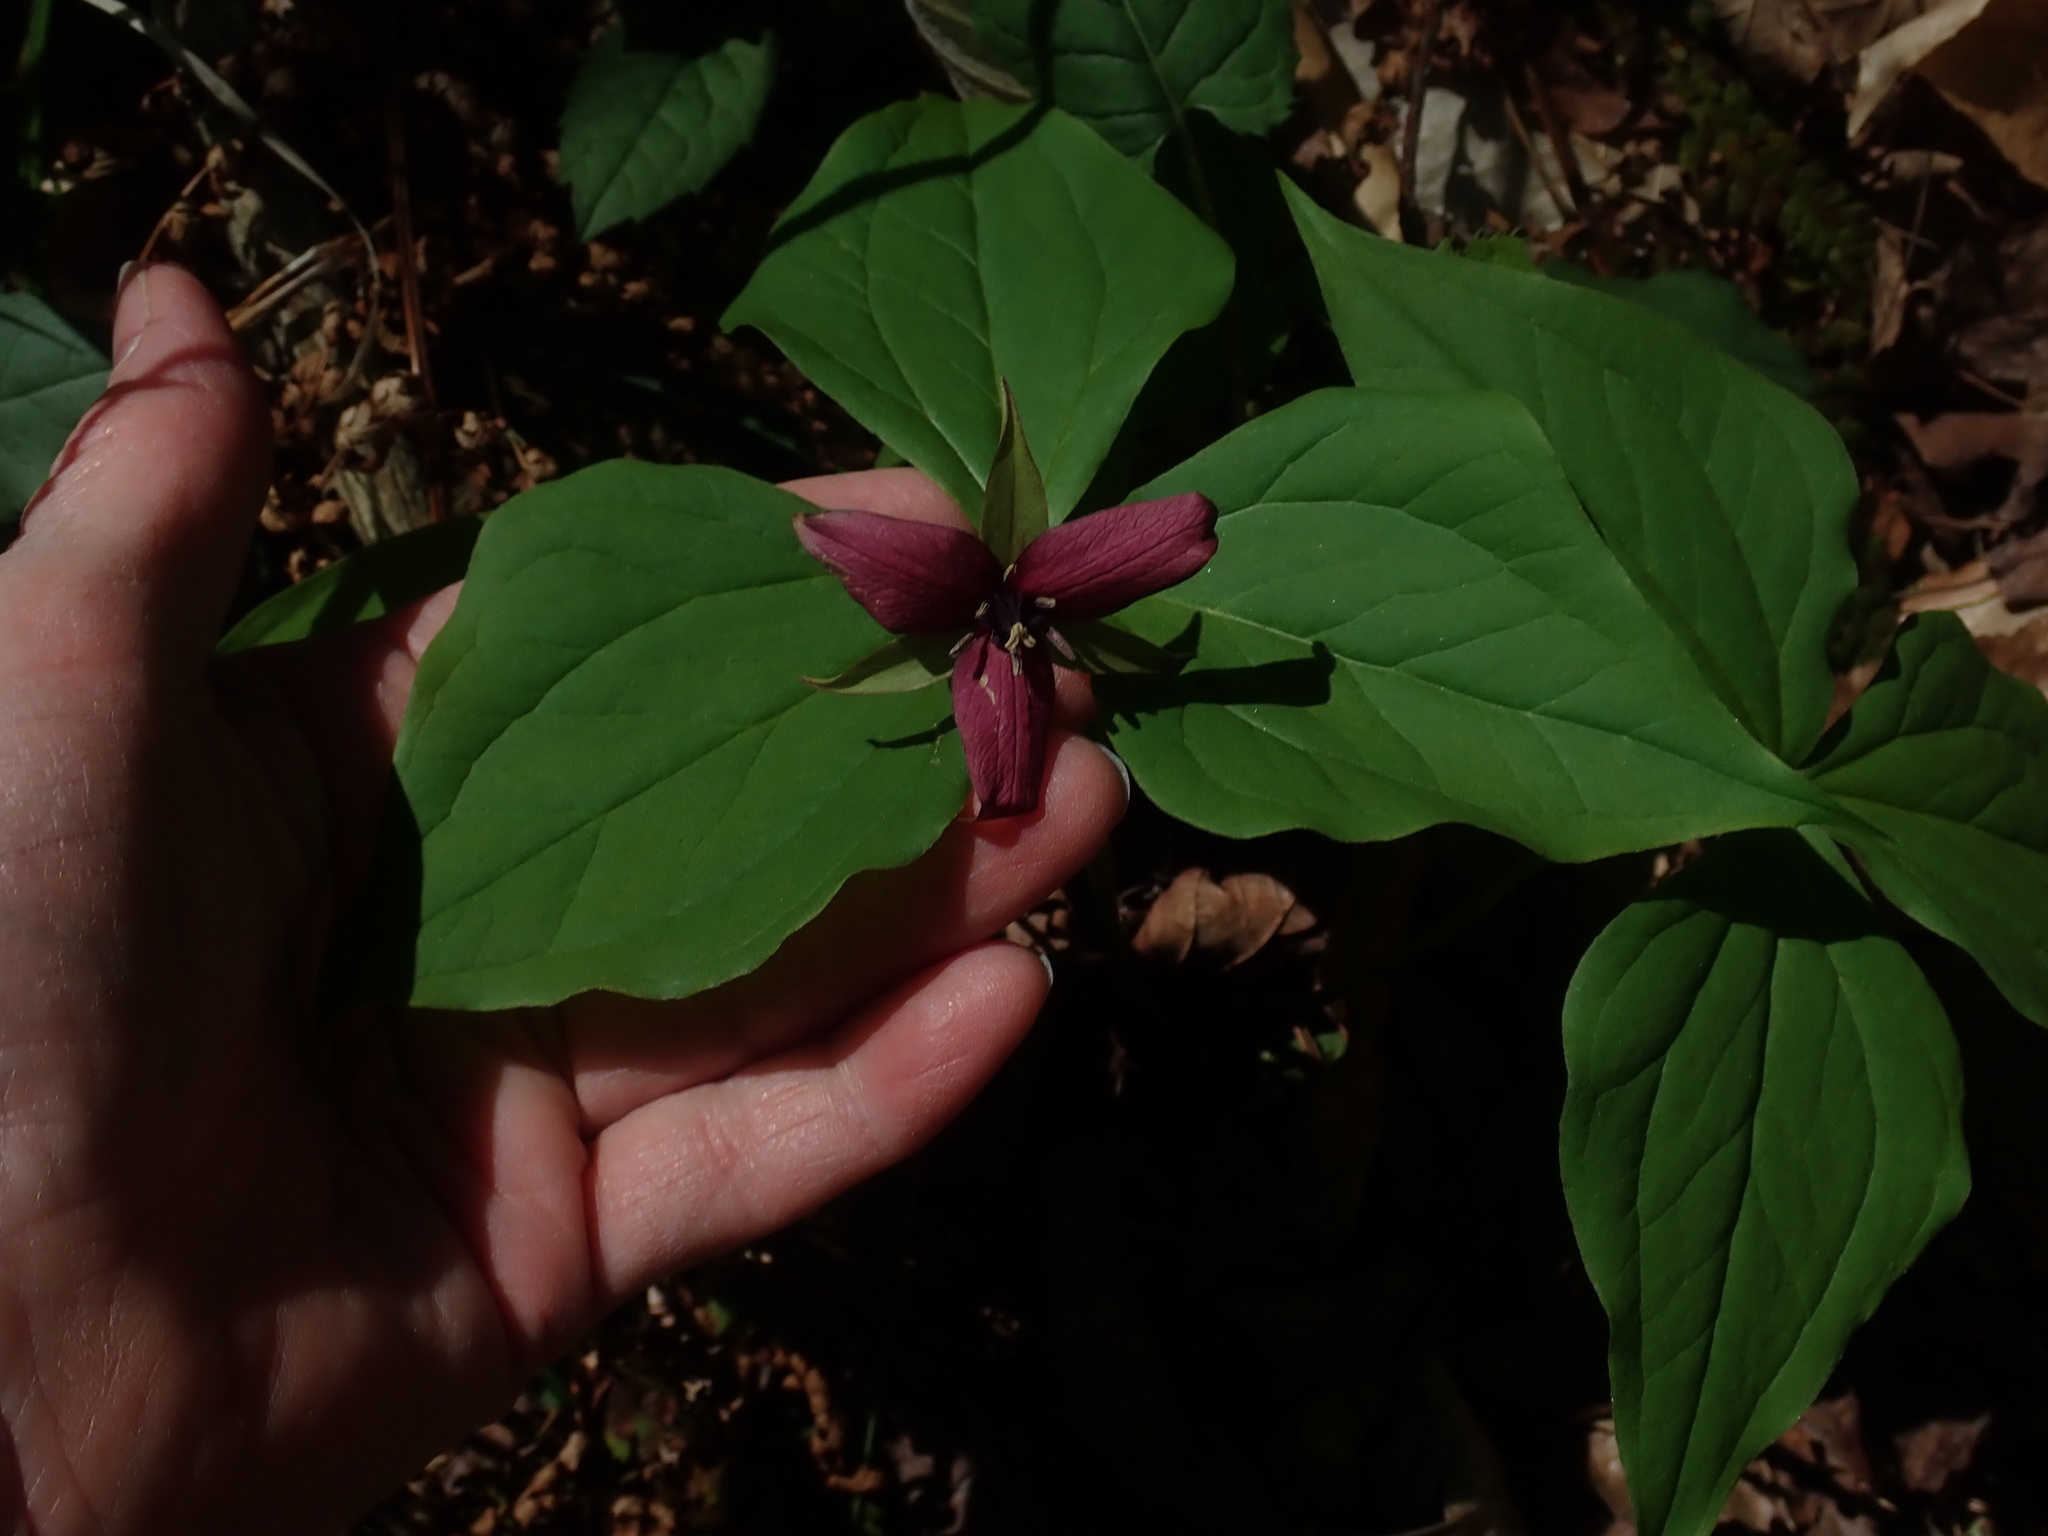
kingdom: Plantae
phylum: Tracheophyta
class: Liliopsida
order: Liliales
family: Melanthiaceae
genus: Trillium
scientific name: Trillium erectum
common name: Purple trillium
